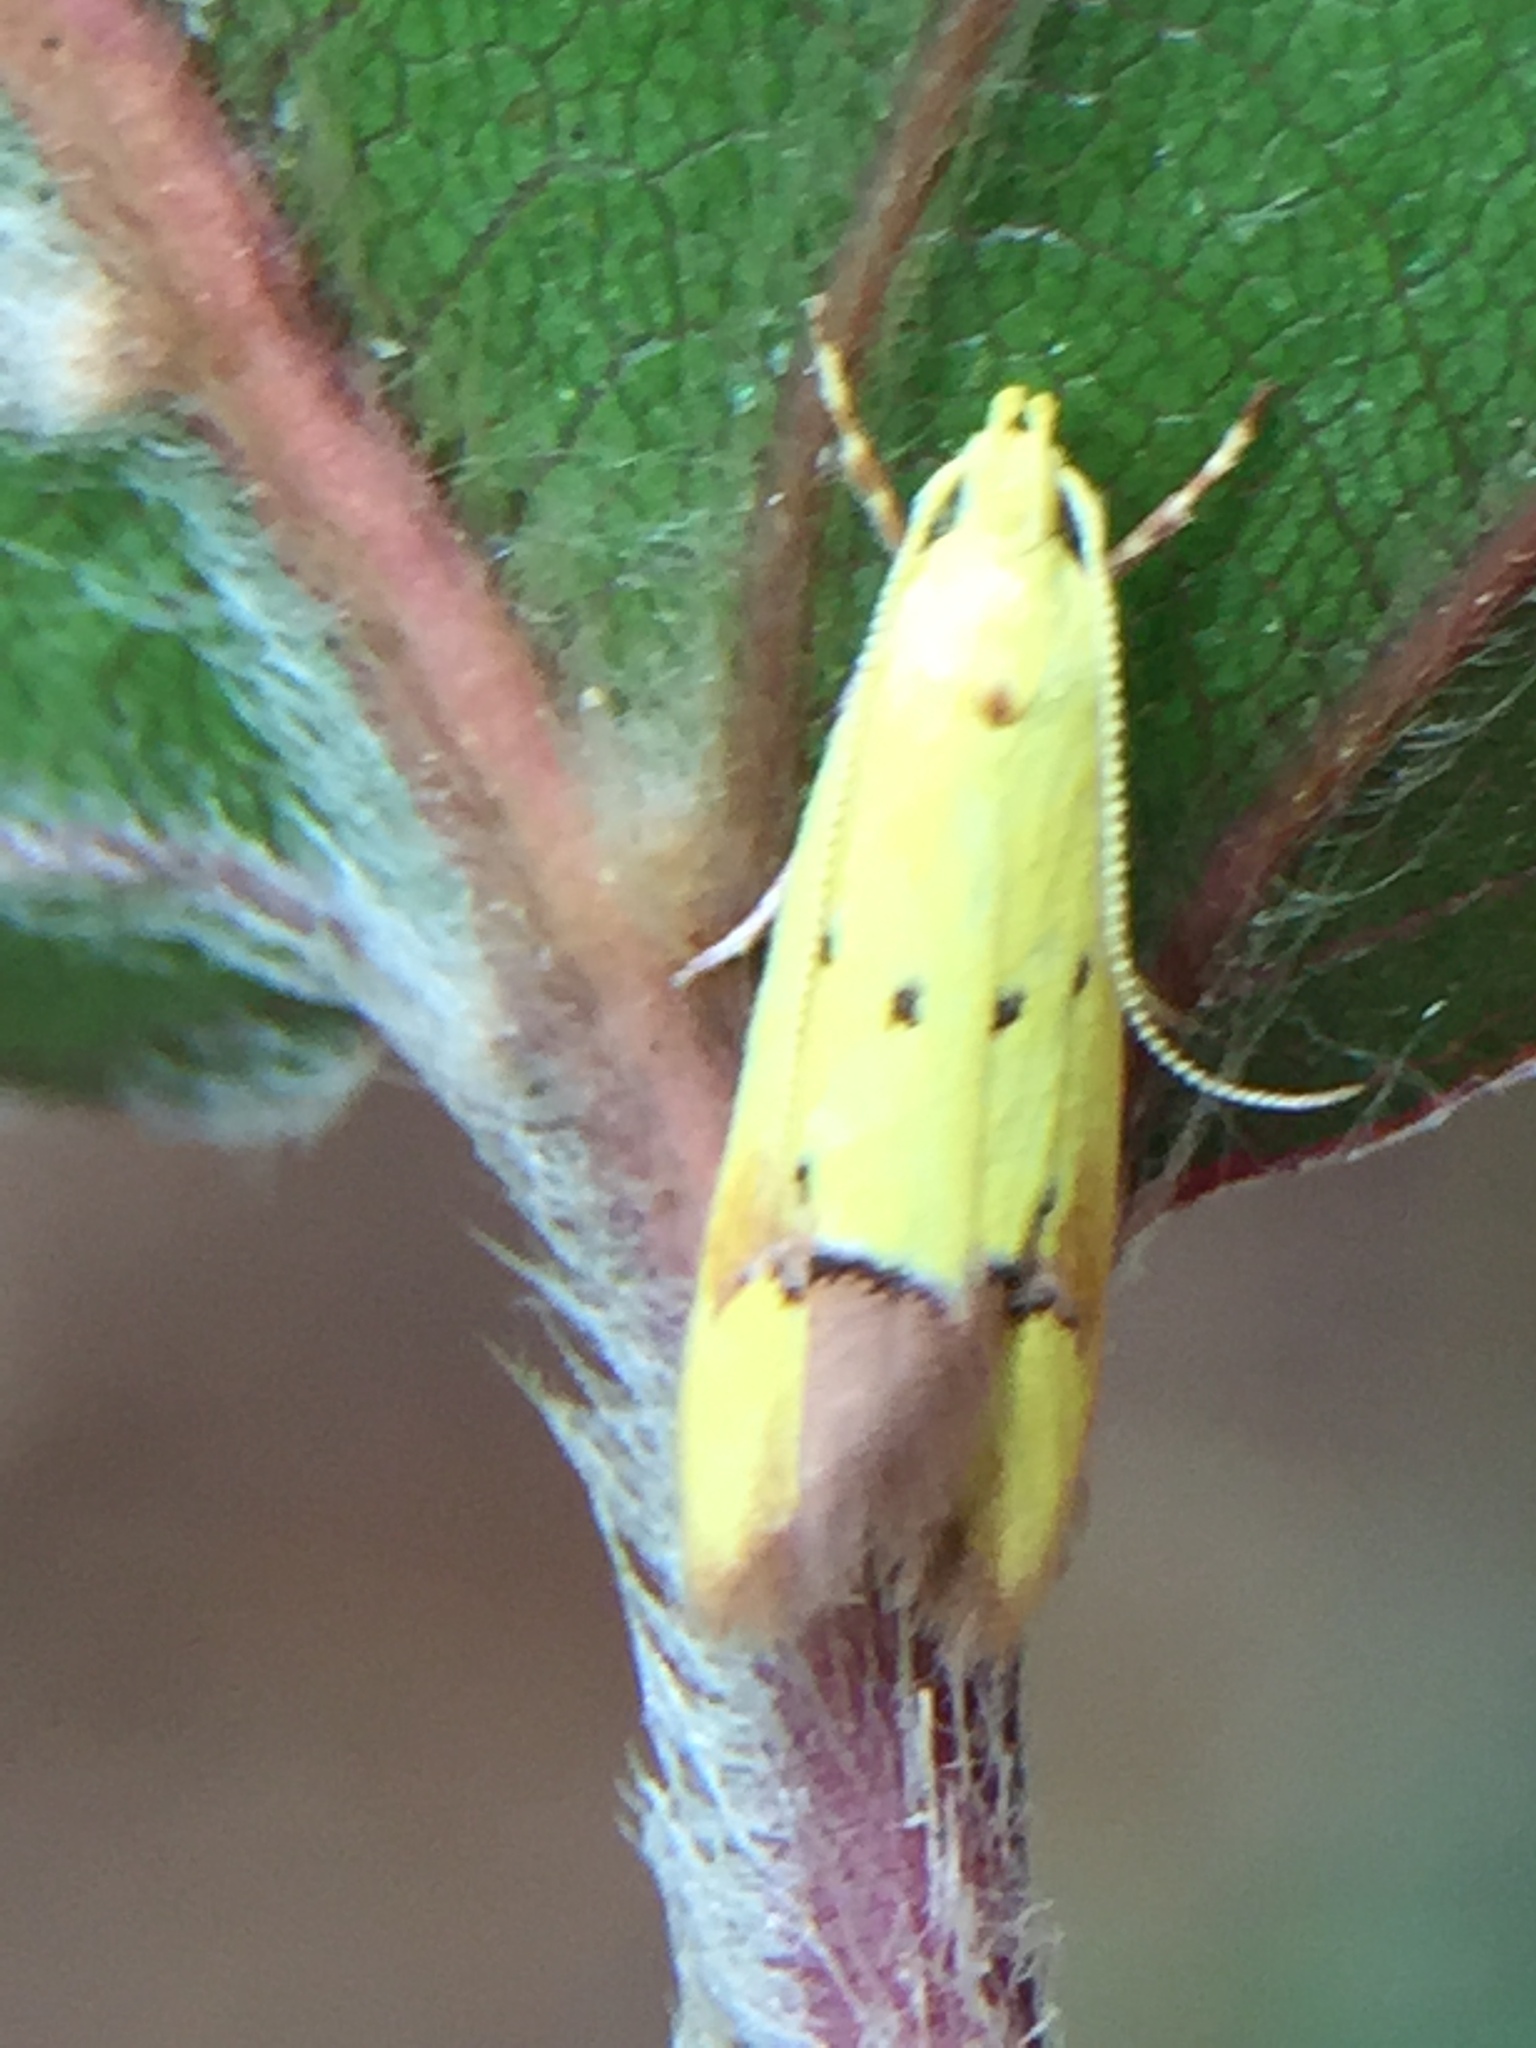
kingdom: Animalia
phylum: Arthropoda
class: Insecta
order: Lepidoptera
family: Oecophoridae
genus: Gymnobathra
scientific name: Gymnobathra flavidella
